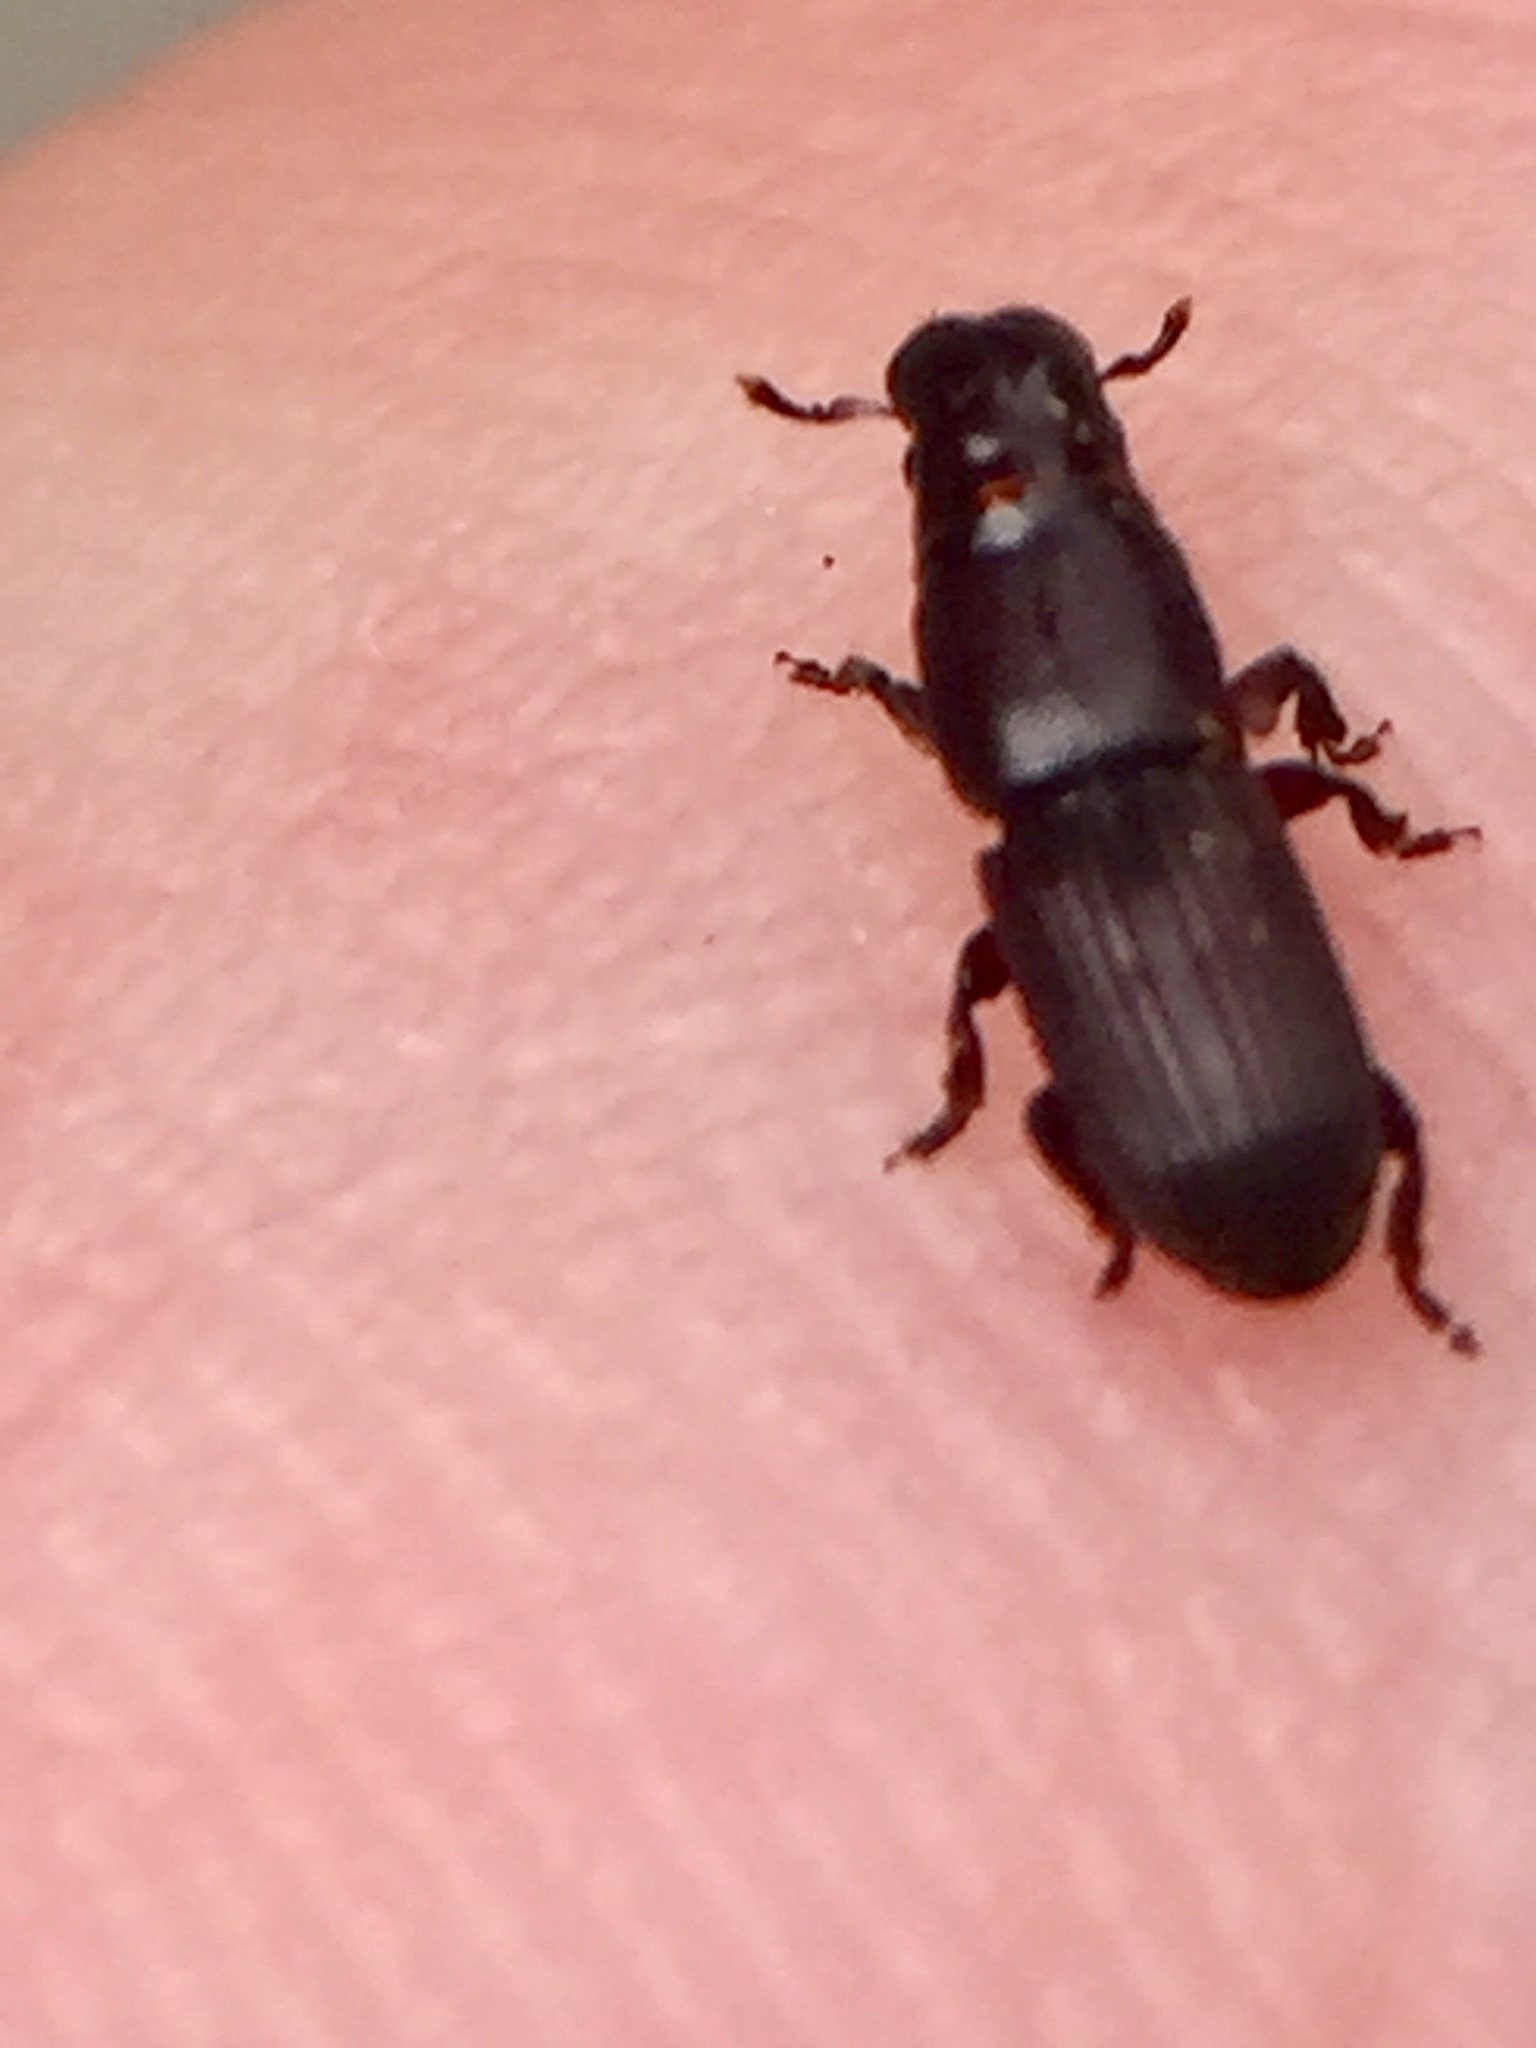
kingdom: Animalia
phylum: Arthropoda
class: Insecta
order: Coleoptera
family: Curculionidae
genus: Xenocnema
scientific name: Xenocnema spinipes
